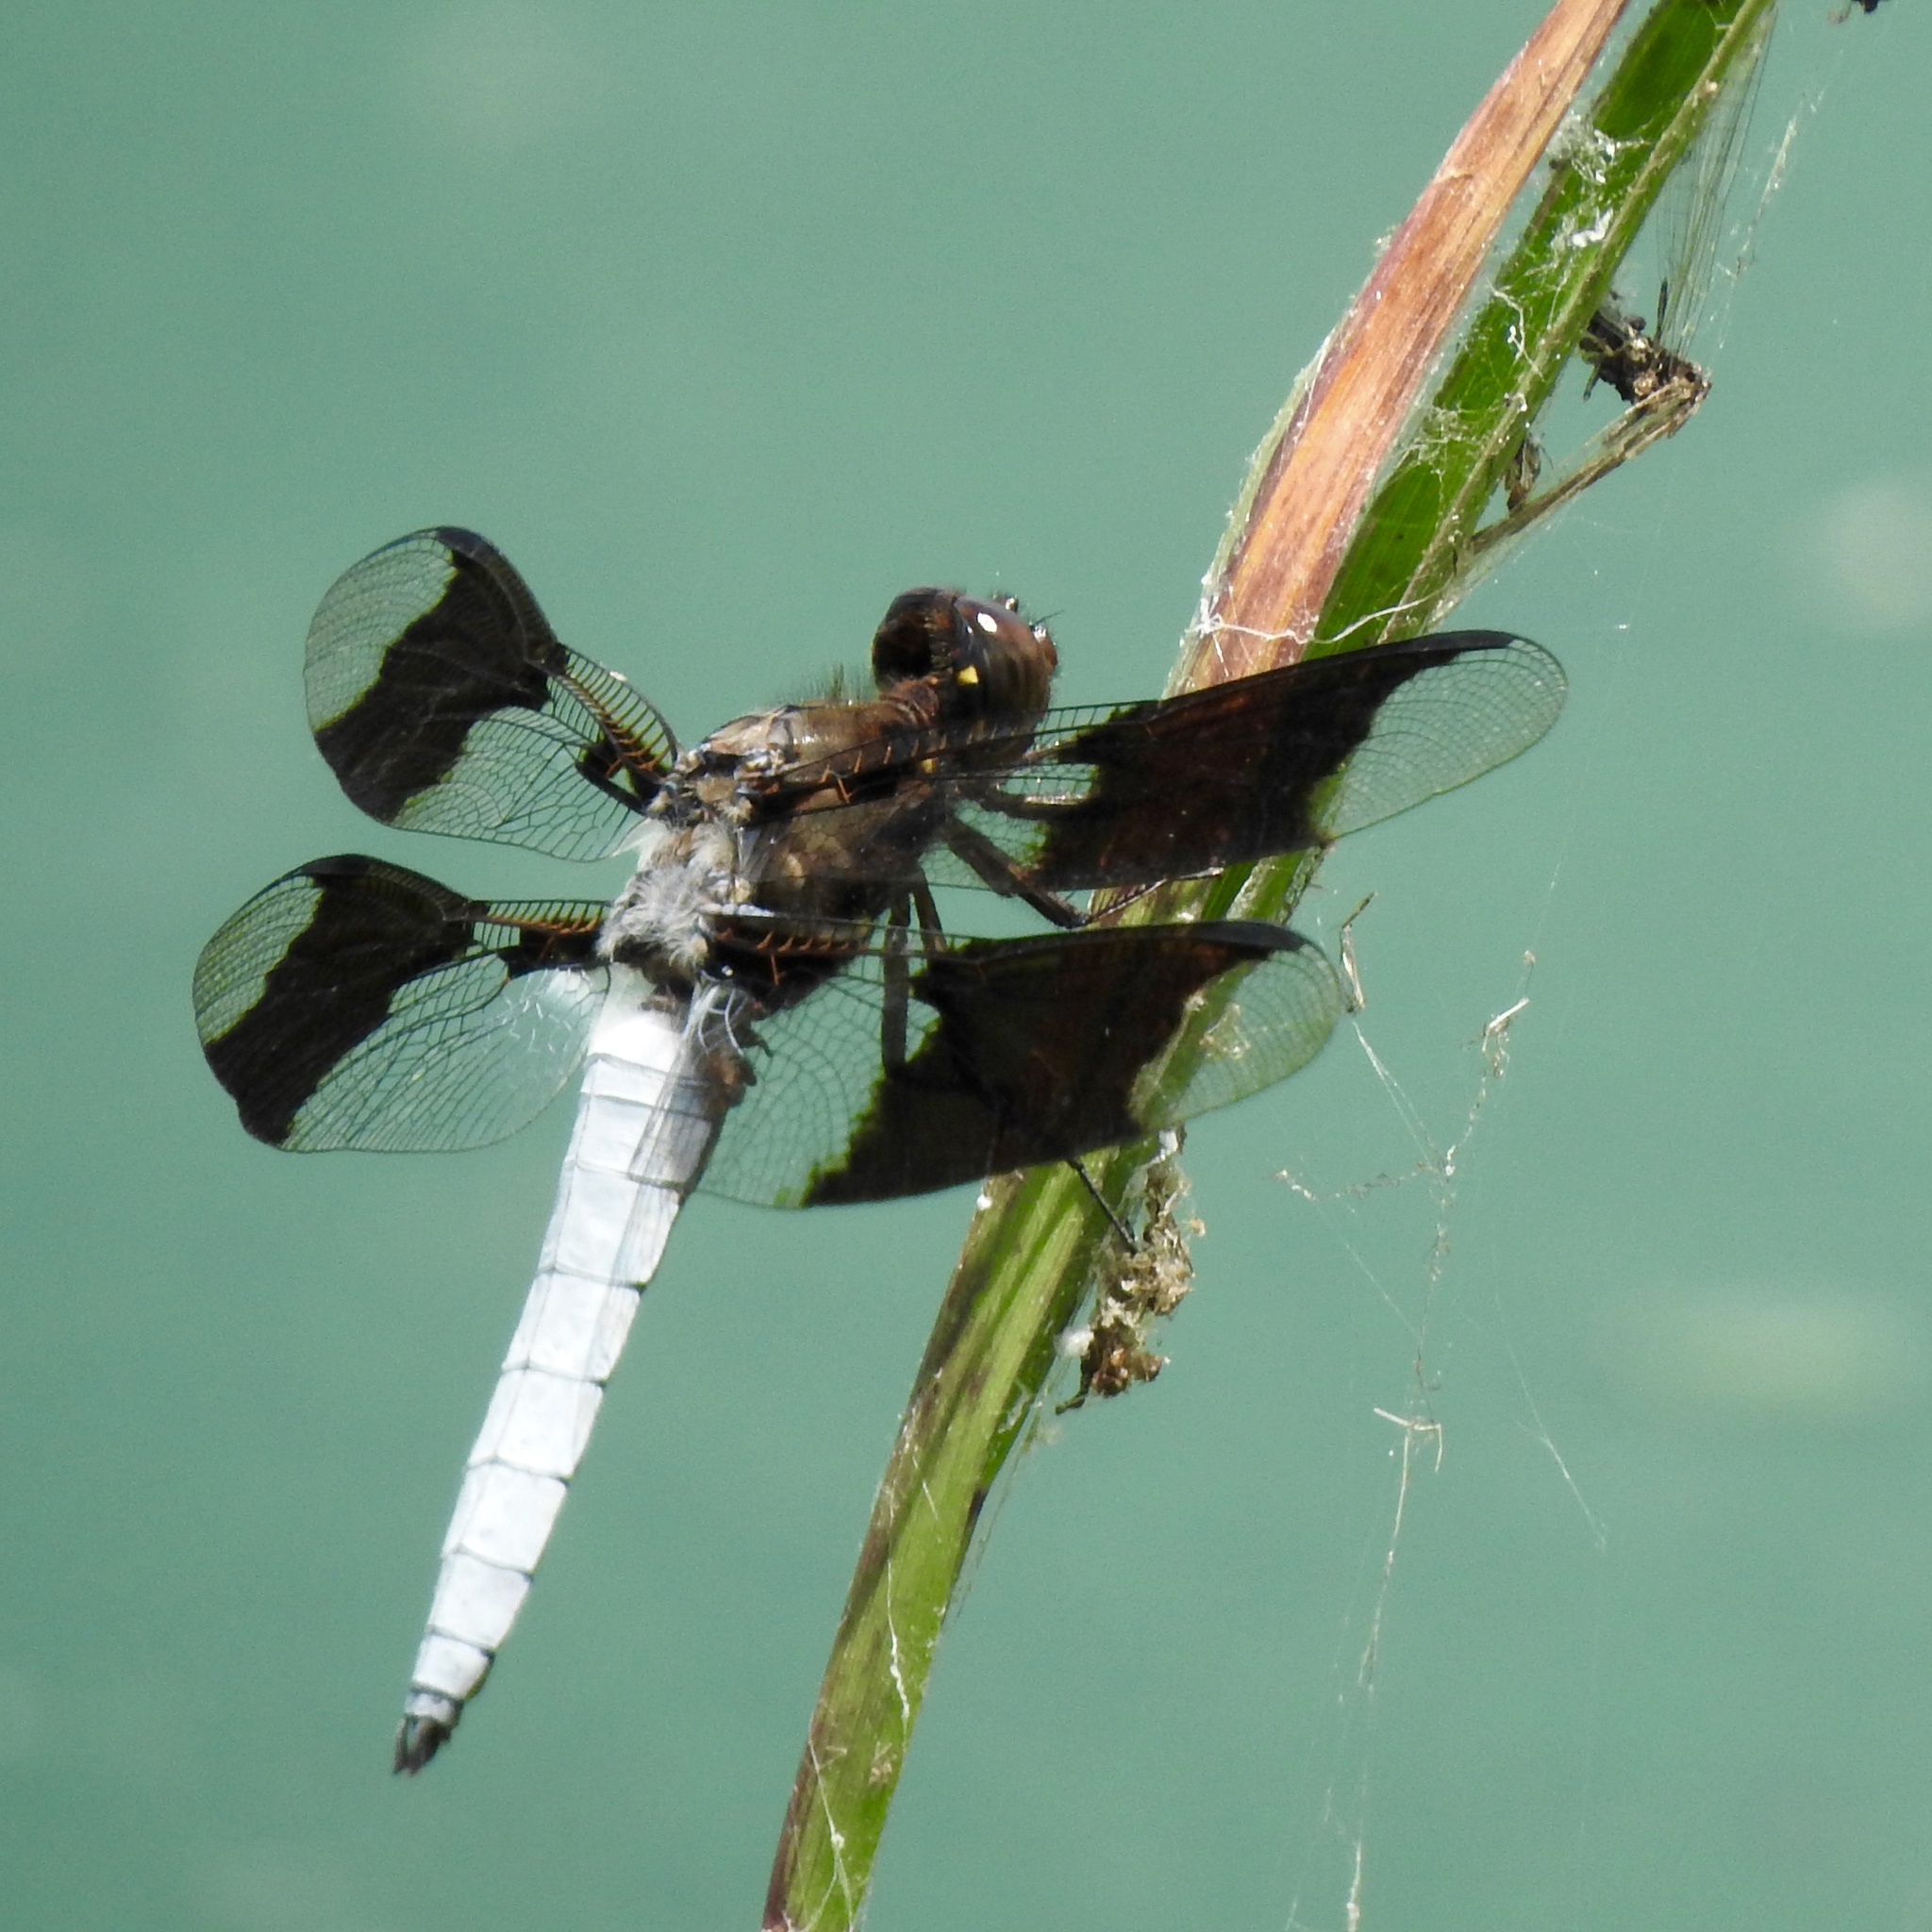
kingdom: Animalia
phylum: Arthropoda
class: Insecta
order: Odonata
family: Libellulidae
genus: Plathemis
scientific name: Plathemis lydia
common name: Common whitetail
